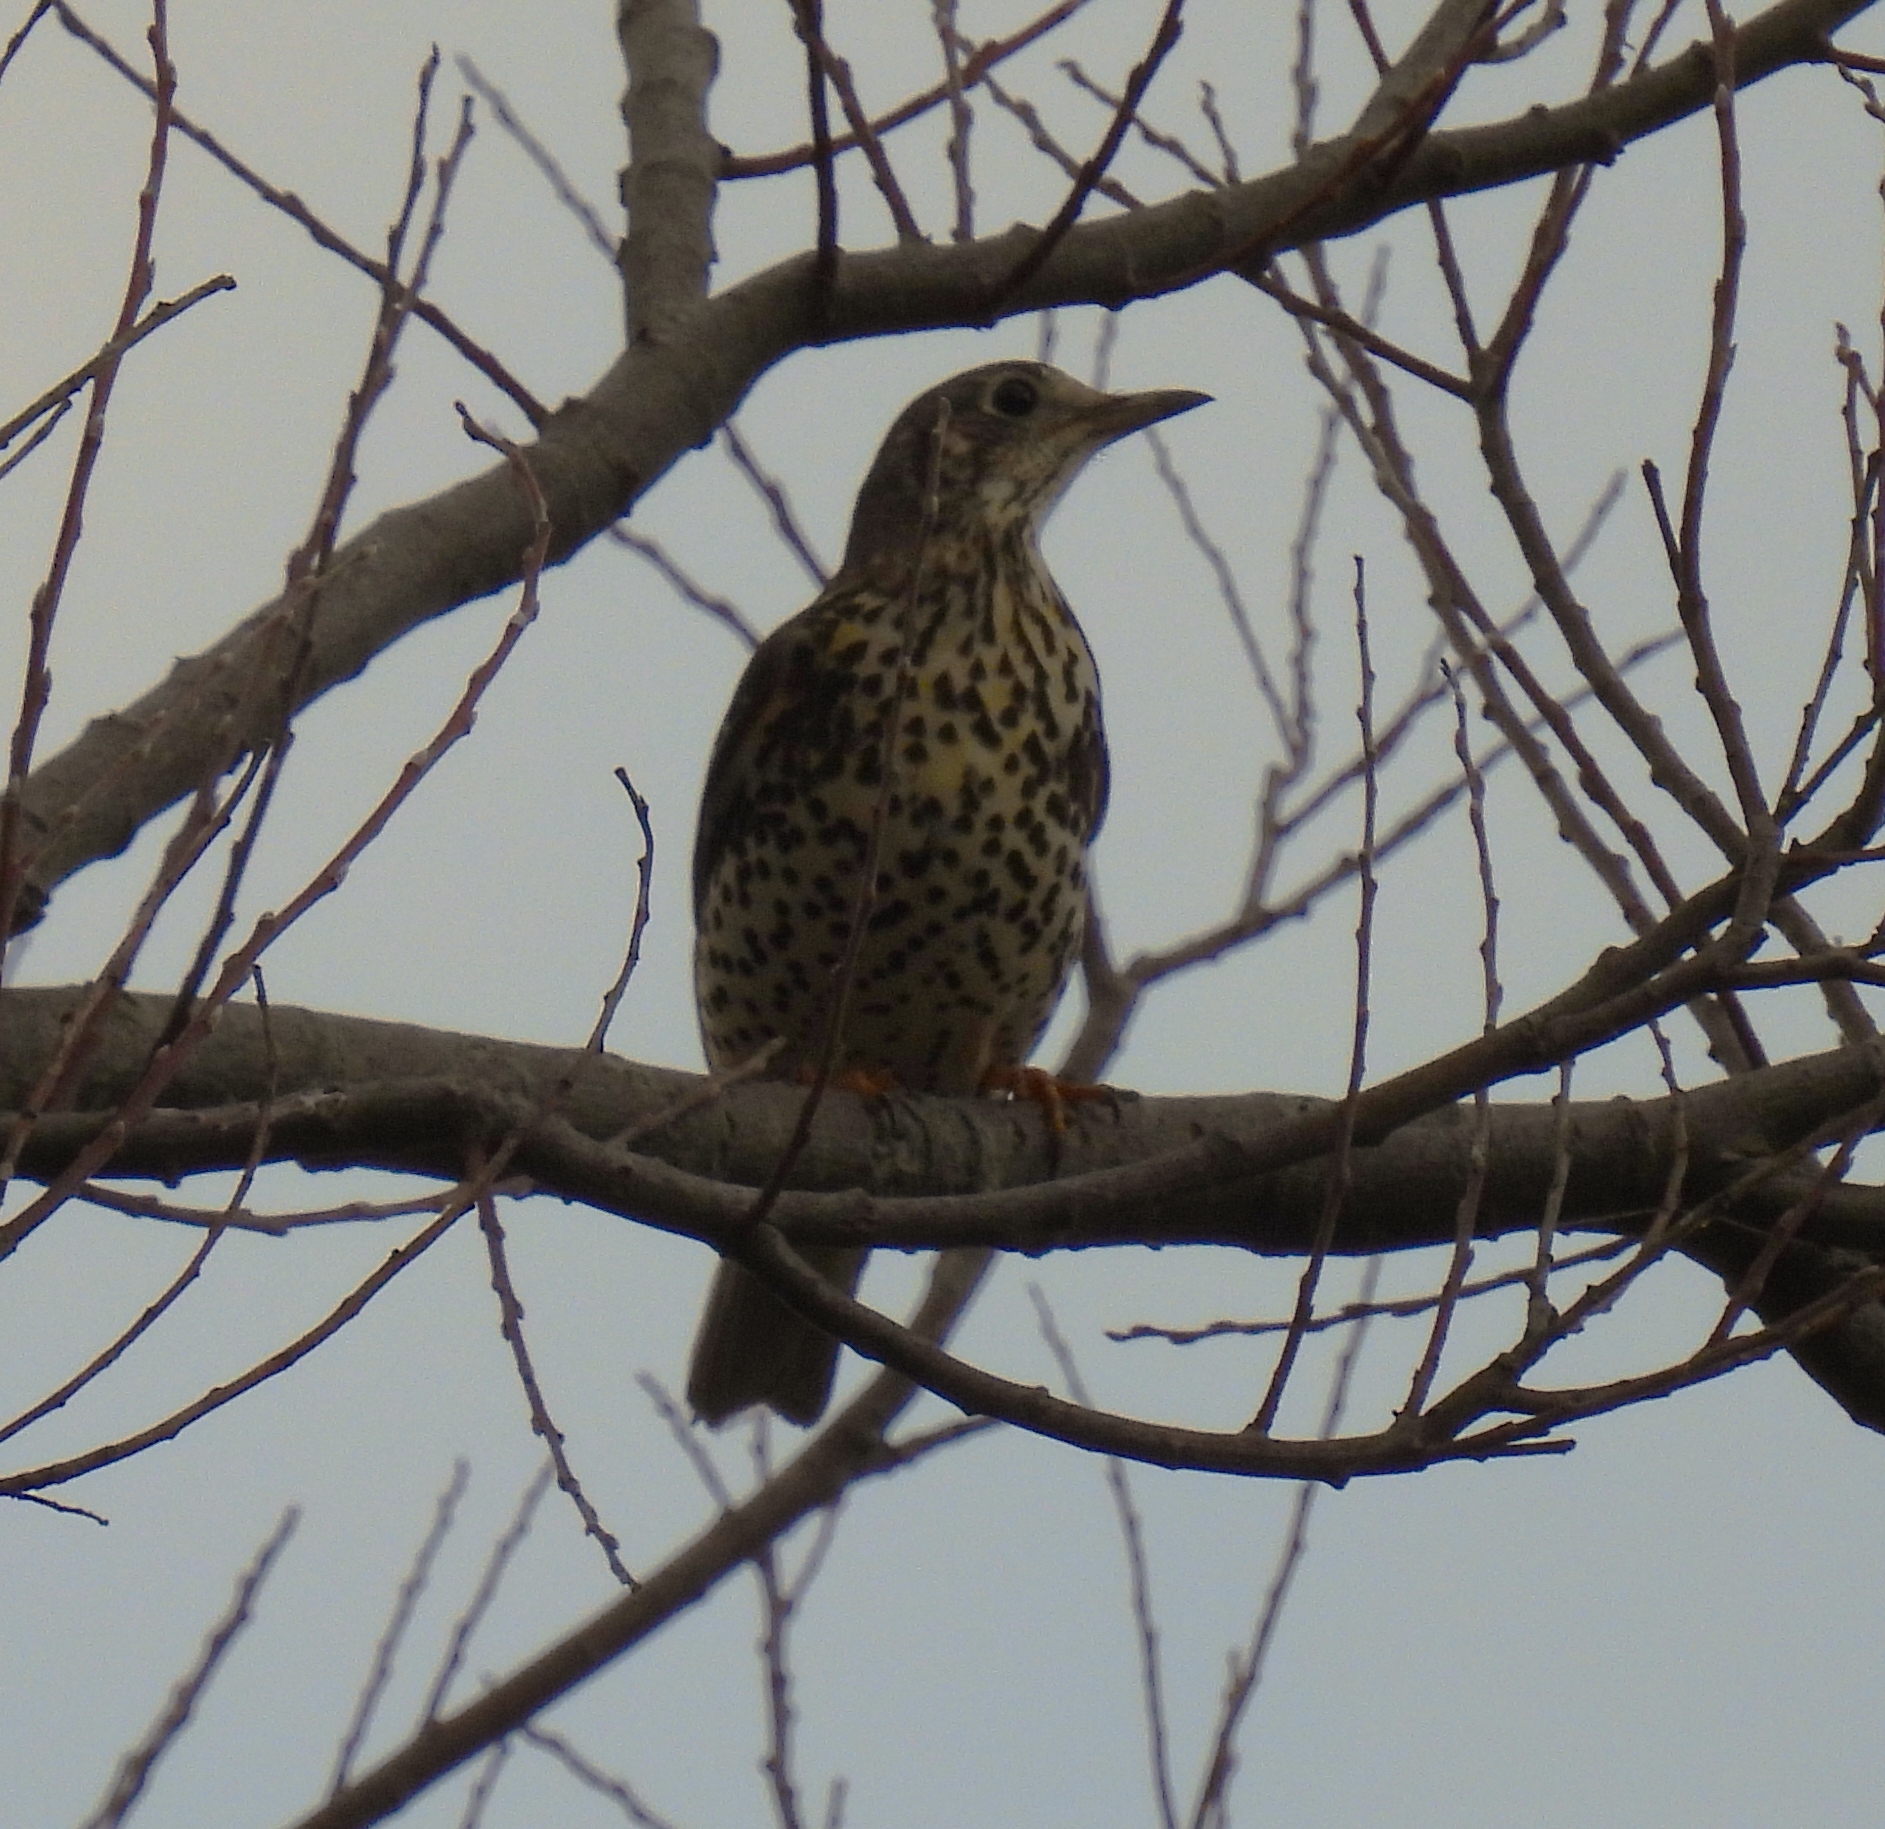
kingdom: Animalia
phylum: Chordata
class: Aves
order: Passeriformes
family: Turdidae
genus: Turdus
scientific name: Turdus viscivorus
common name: Mistle thrush
